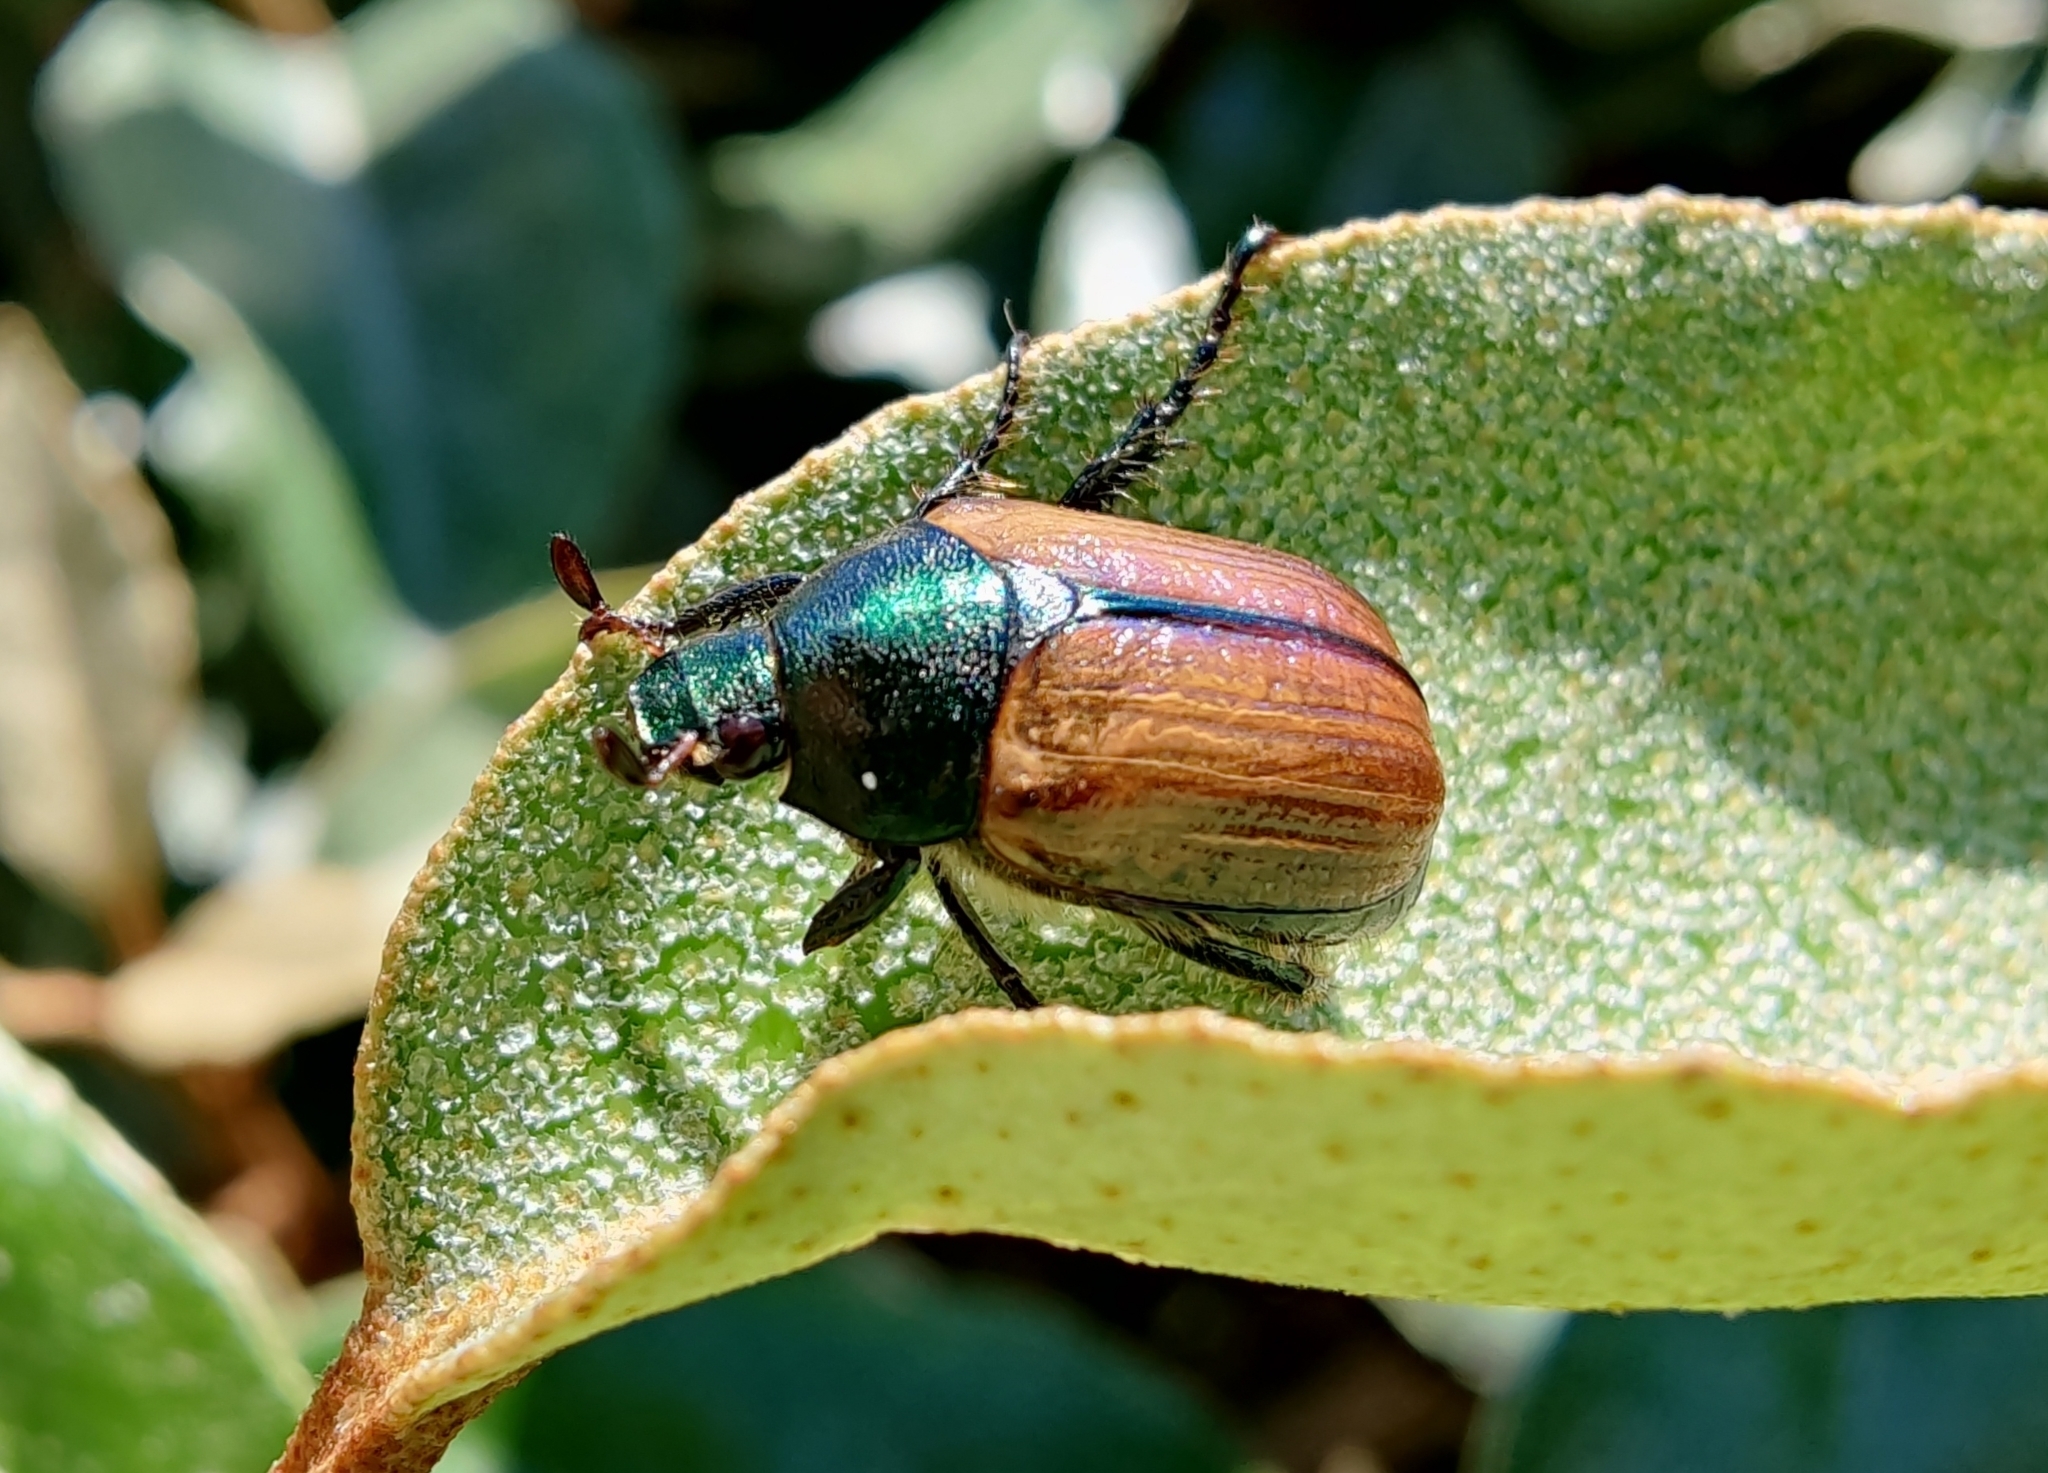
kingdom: Animalia
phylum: Arthropoda
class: Insecta
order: Coleoptera
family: Scarabaeidae
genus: Anomala
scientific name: Anomala dubia
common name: Dune chafer
